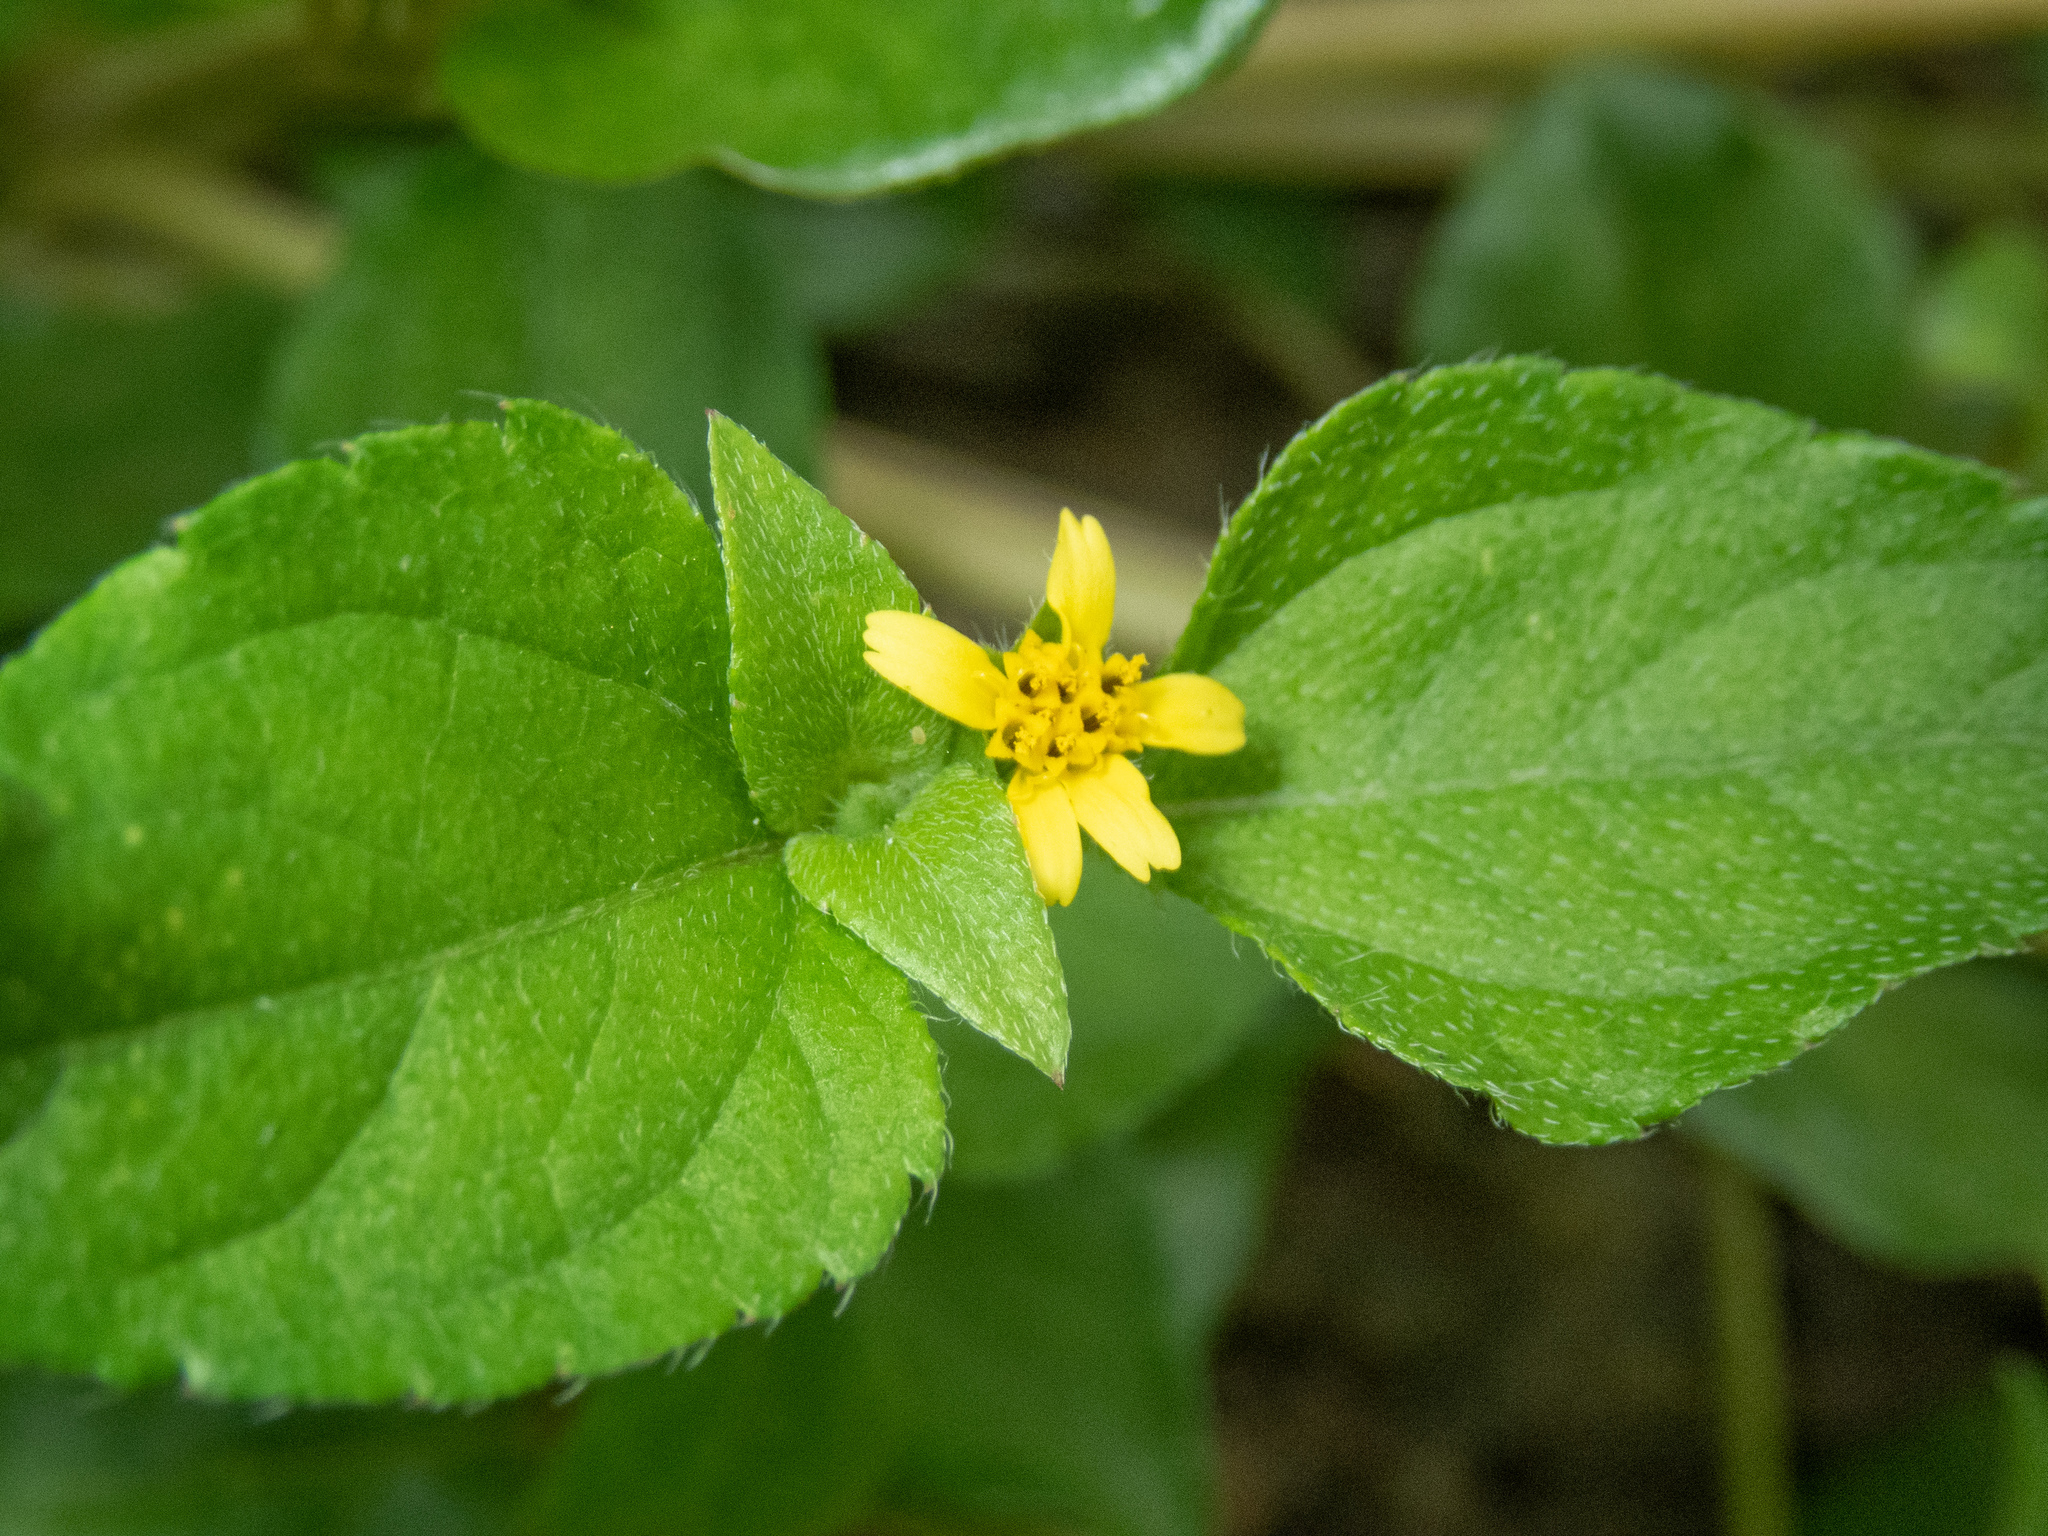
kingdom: Plantae
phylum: Tracheophyta
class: Magnoliopsida
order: Asterales
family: Asteraceae
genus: Calyptocarpus
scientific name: Calyptocarpus vialis
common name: Straggler daisy
